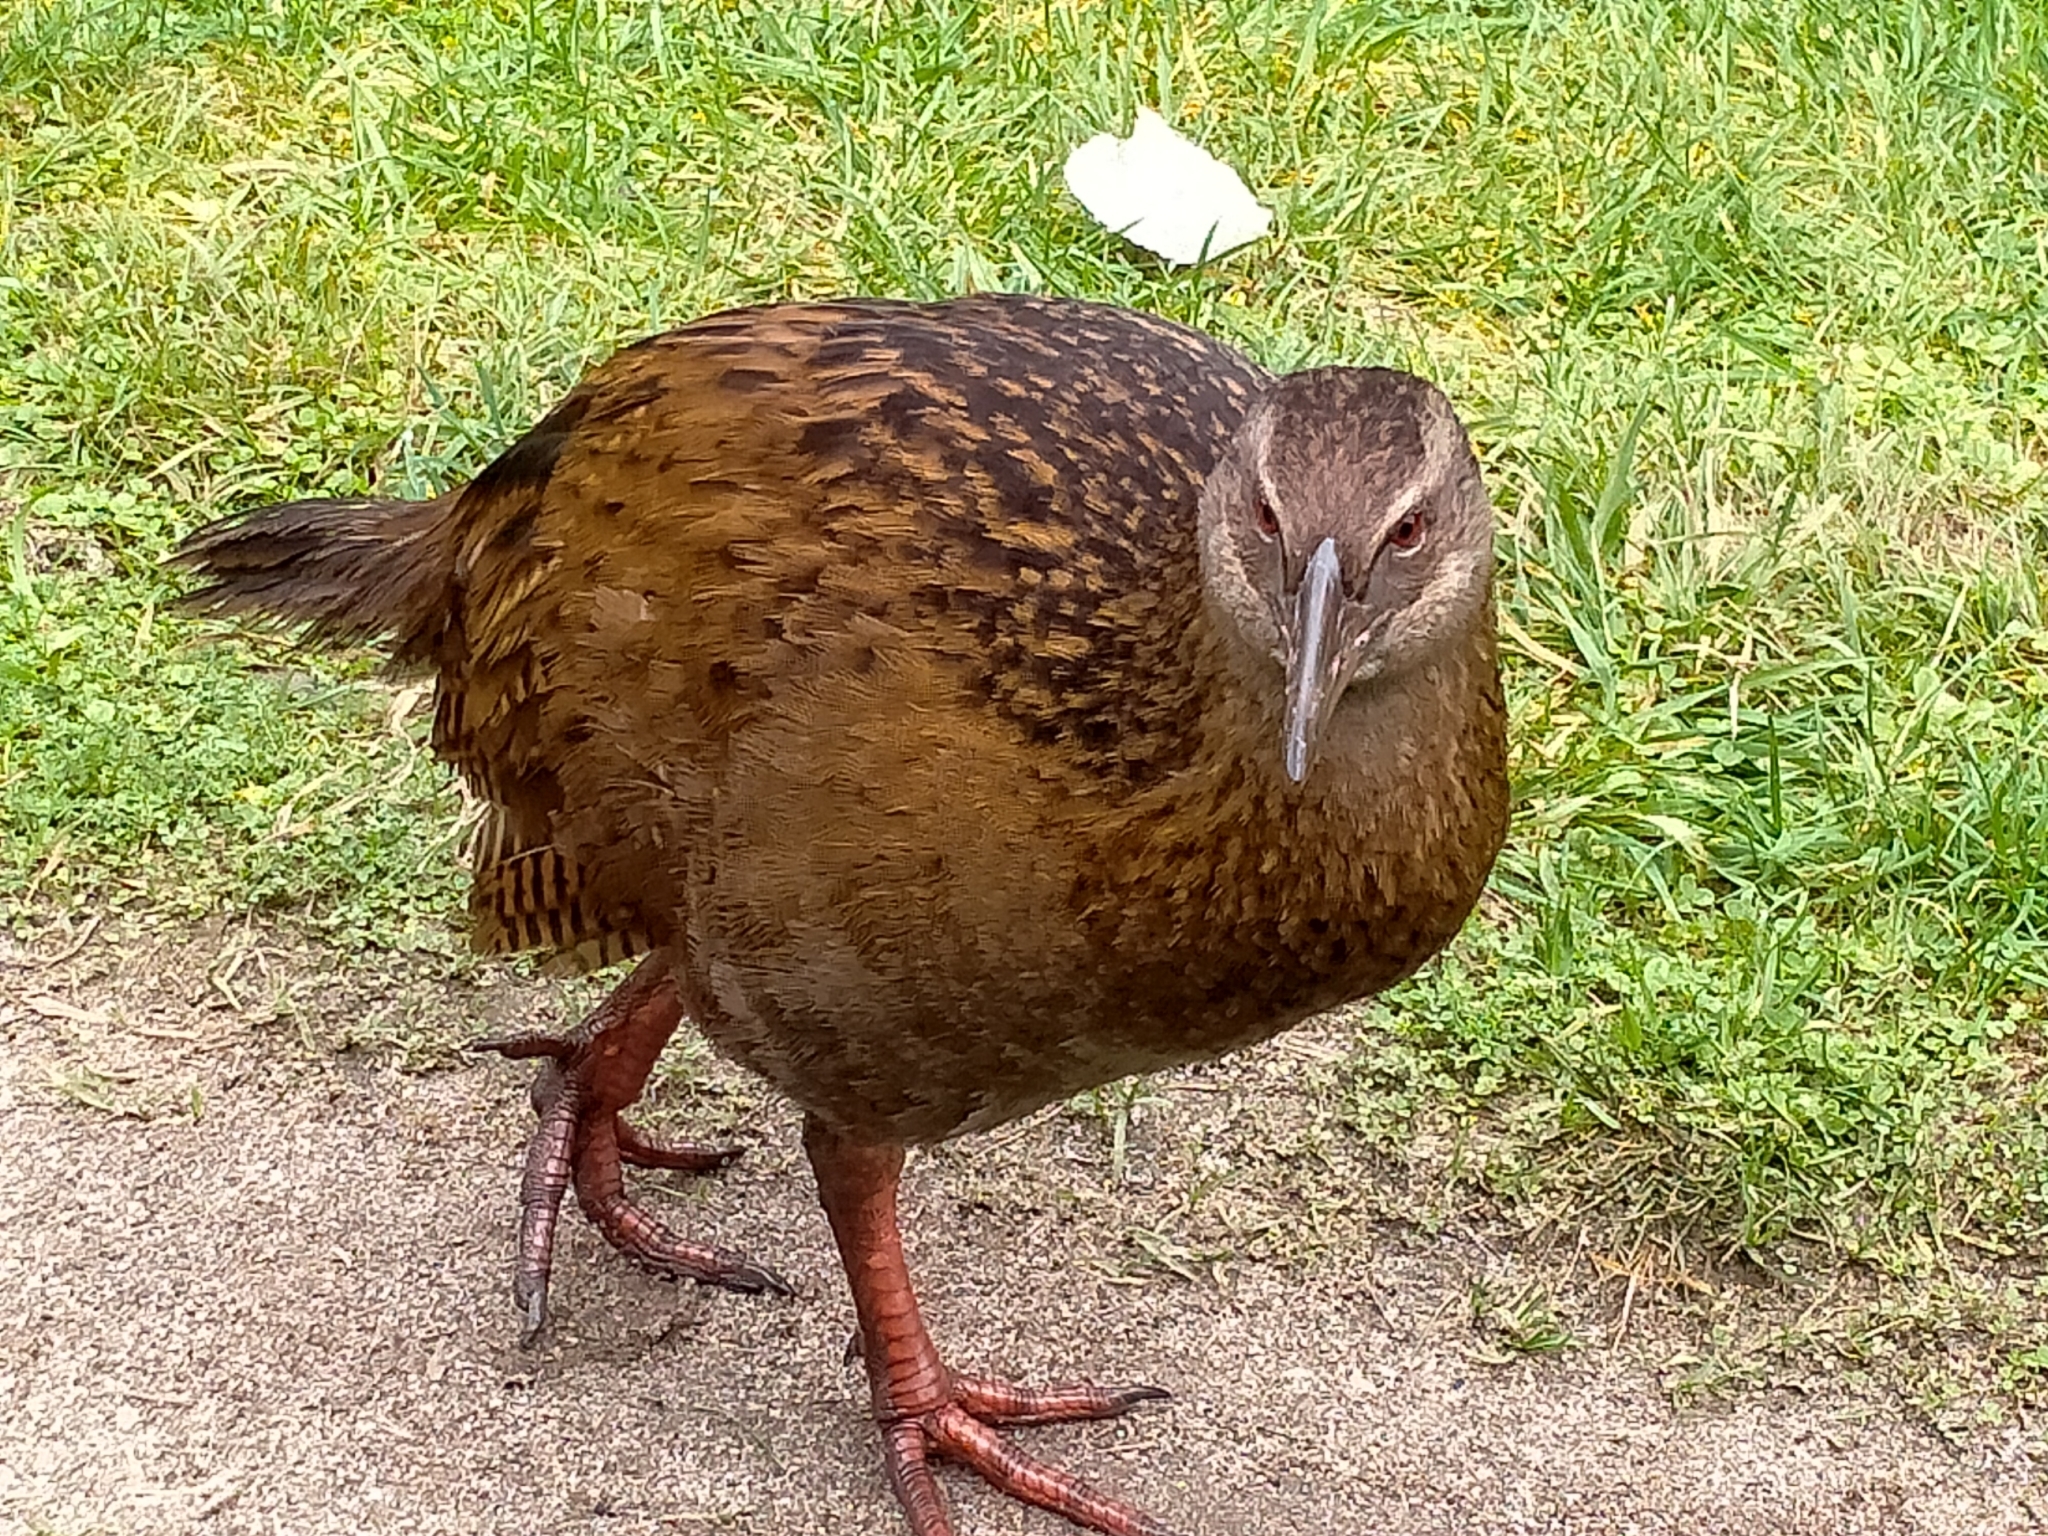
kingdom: Animalia
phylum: Chordata
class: Aves
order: Gruiformes
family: Rallidae
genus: Gallirallus
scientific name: Gallirallus australis
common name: Weka
